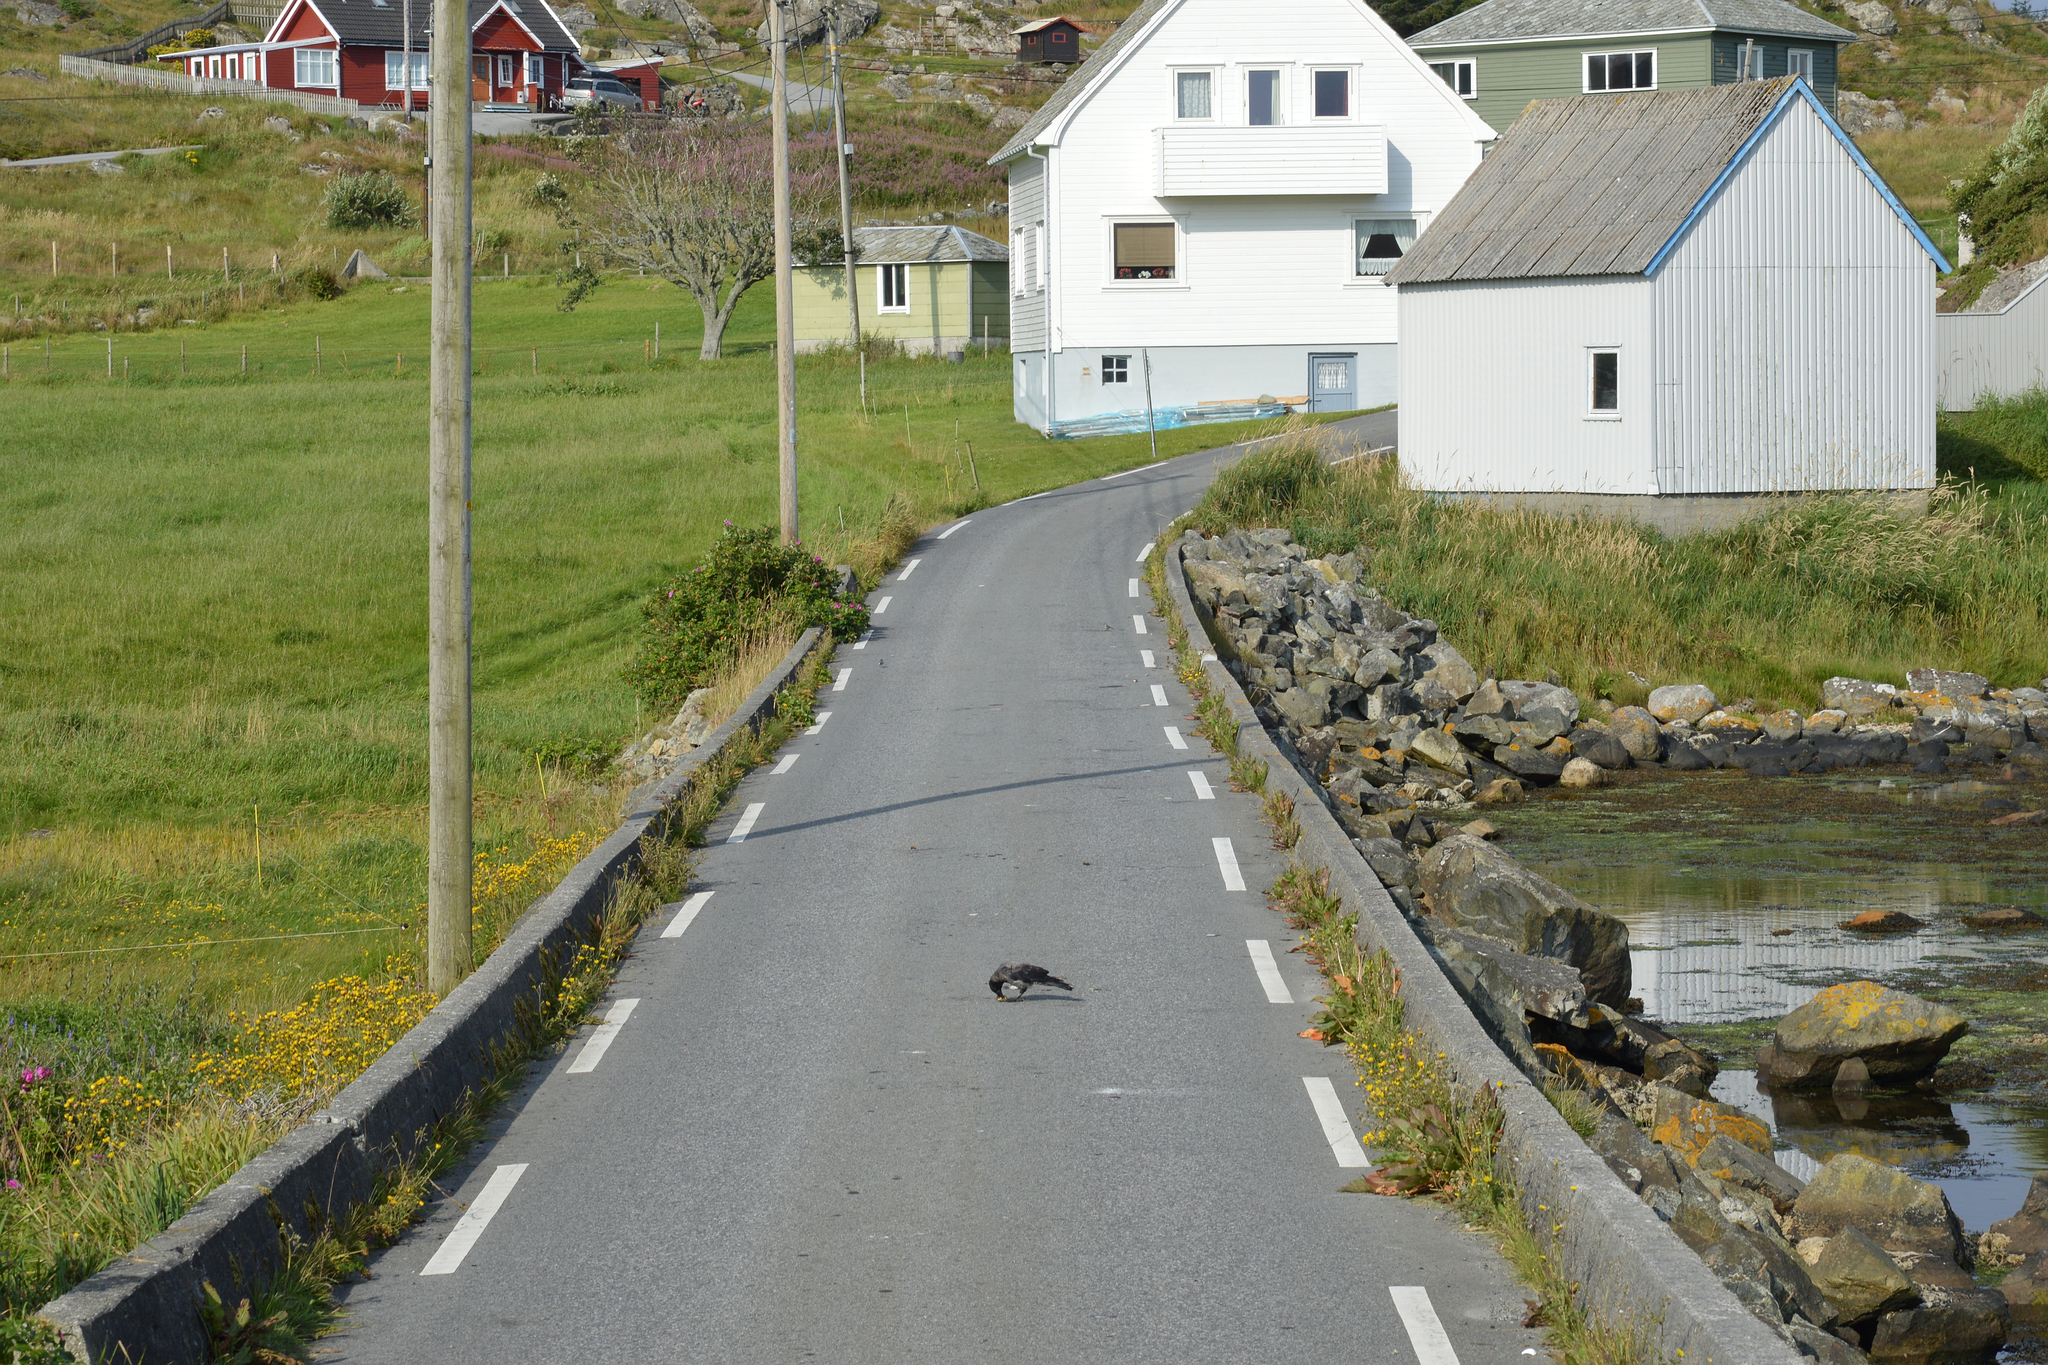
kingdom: Animalia
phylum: Chordata
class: Aves
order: Passeriformes
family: Corvidae
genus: Corvus
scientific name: Corvus cornix
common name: Hooded crow
